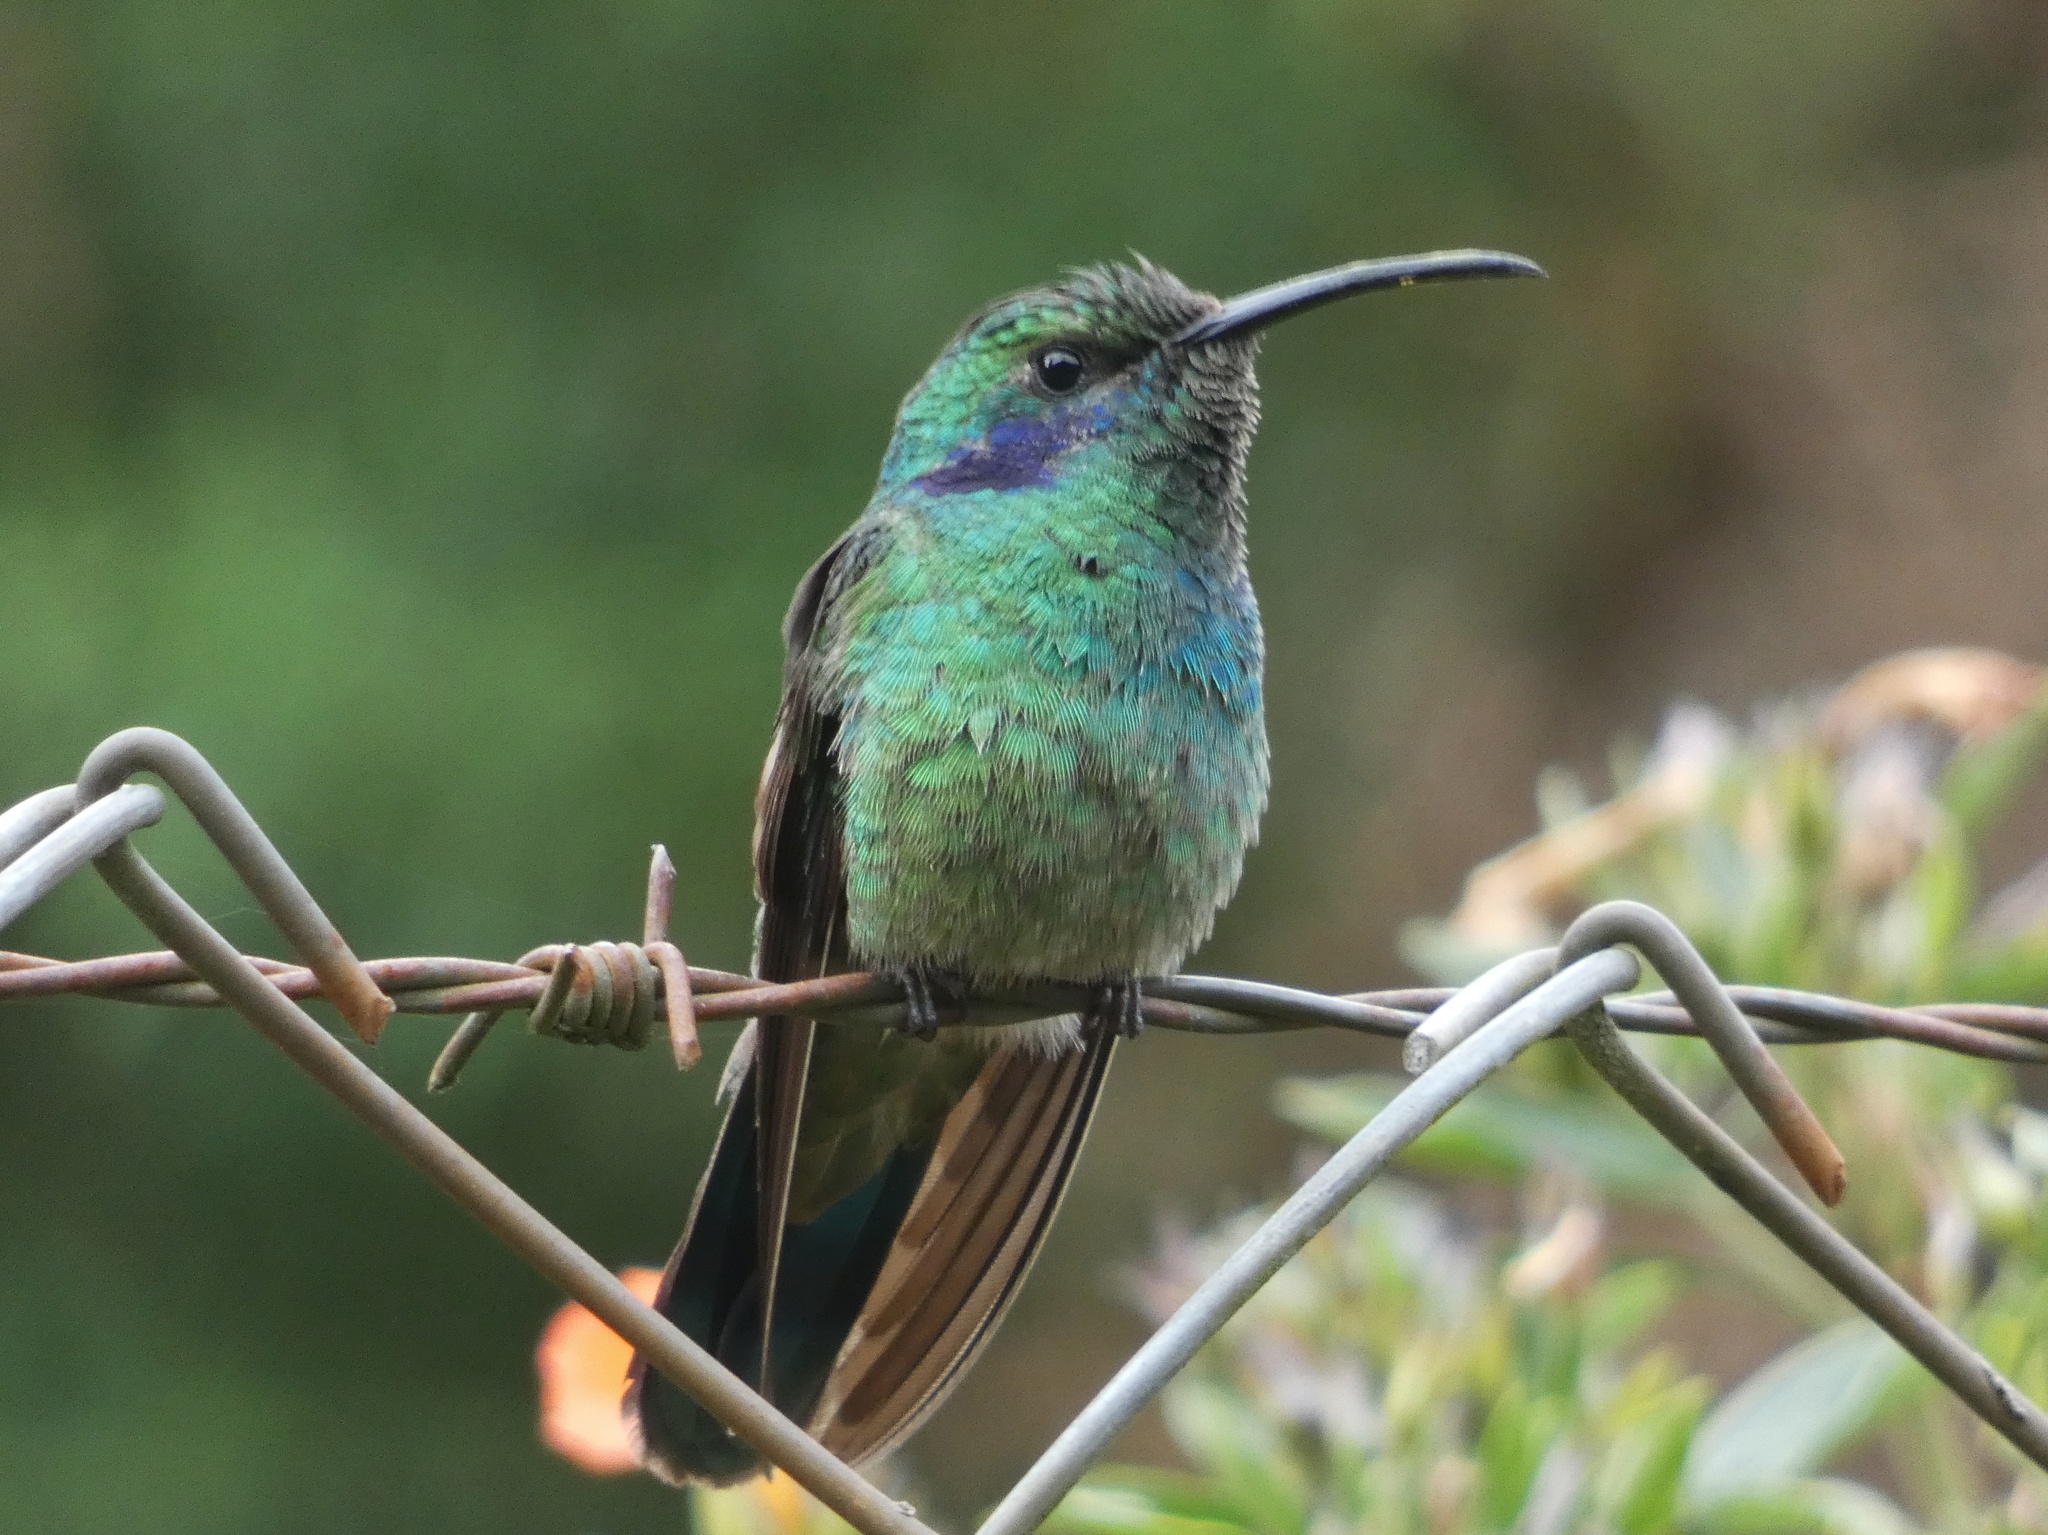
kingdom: Animalia
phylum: Chordata
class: Aves
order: Apodiformes
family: Trochilidae
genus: Colibri
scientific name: Colibri cyanotus
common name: Lesser violetear
